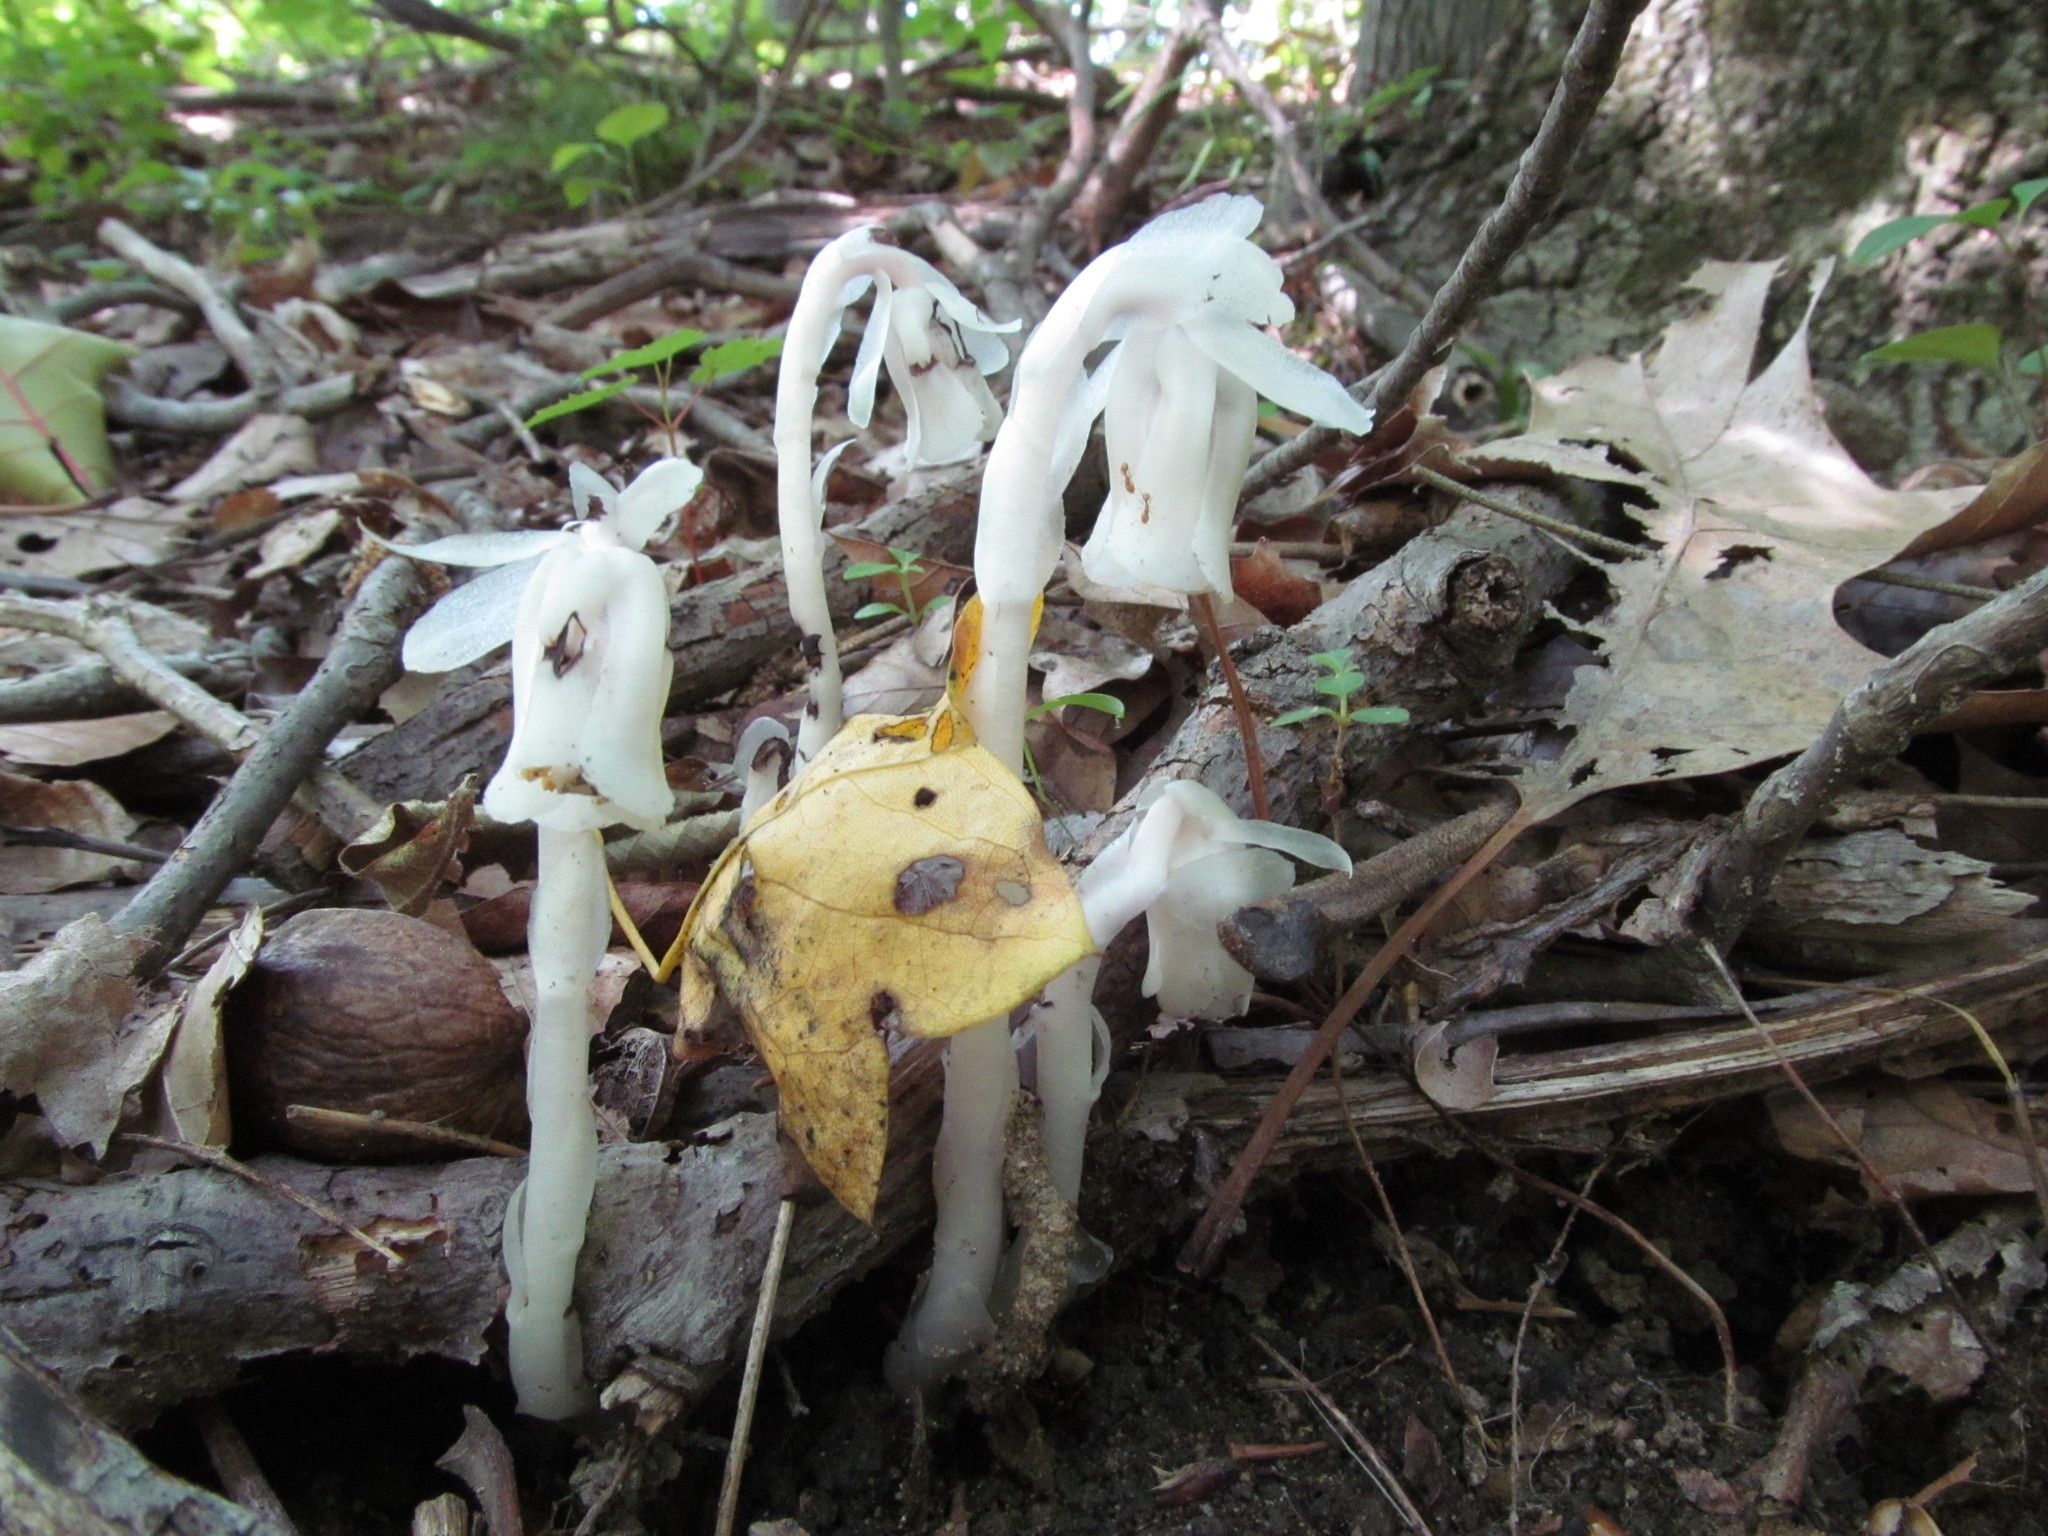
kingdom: Plantae
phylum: Tracheophyta
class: Magnoliopsida
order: Ericales
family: Ericaceae
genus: Monotropa
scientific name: Monotropa uniflora
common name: Convulsion root
